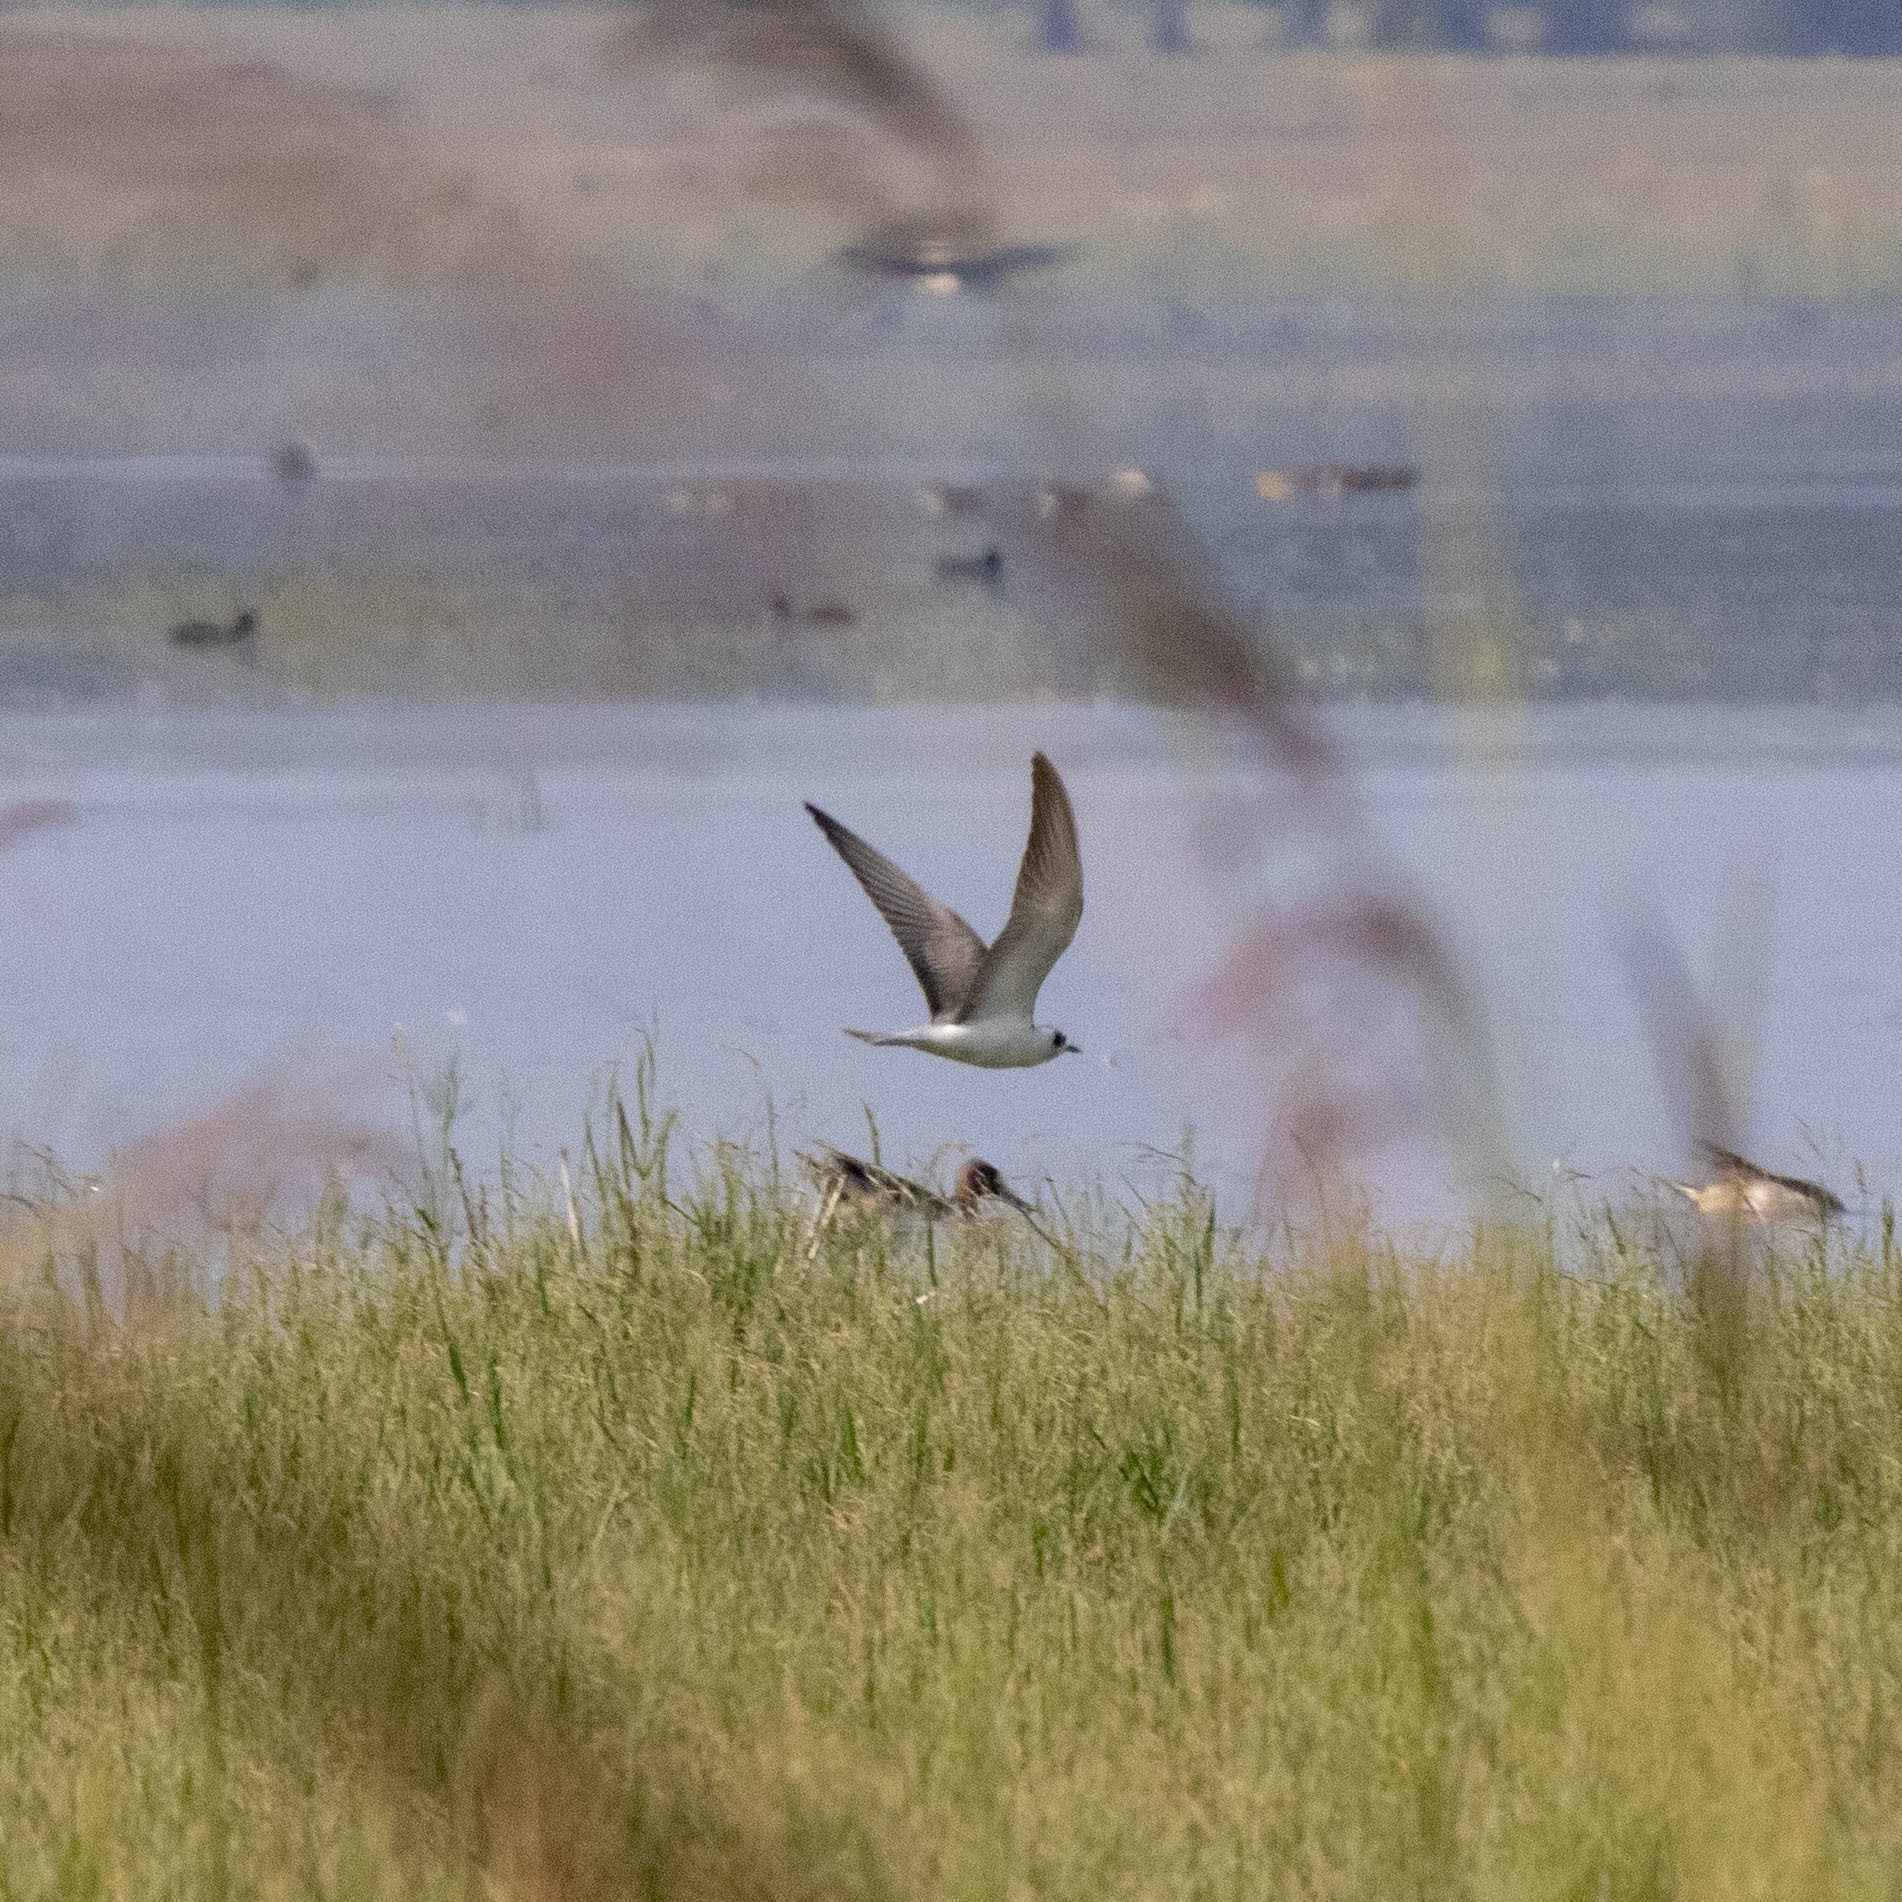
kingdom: Animalia
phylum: Chordata
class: Aves
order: Charadriiformes
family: Laridae
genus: Chlidonias
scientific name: Chlidonias leucopterus
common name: White-winged tern
